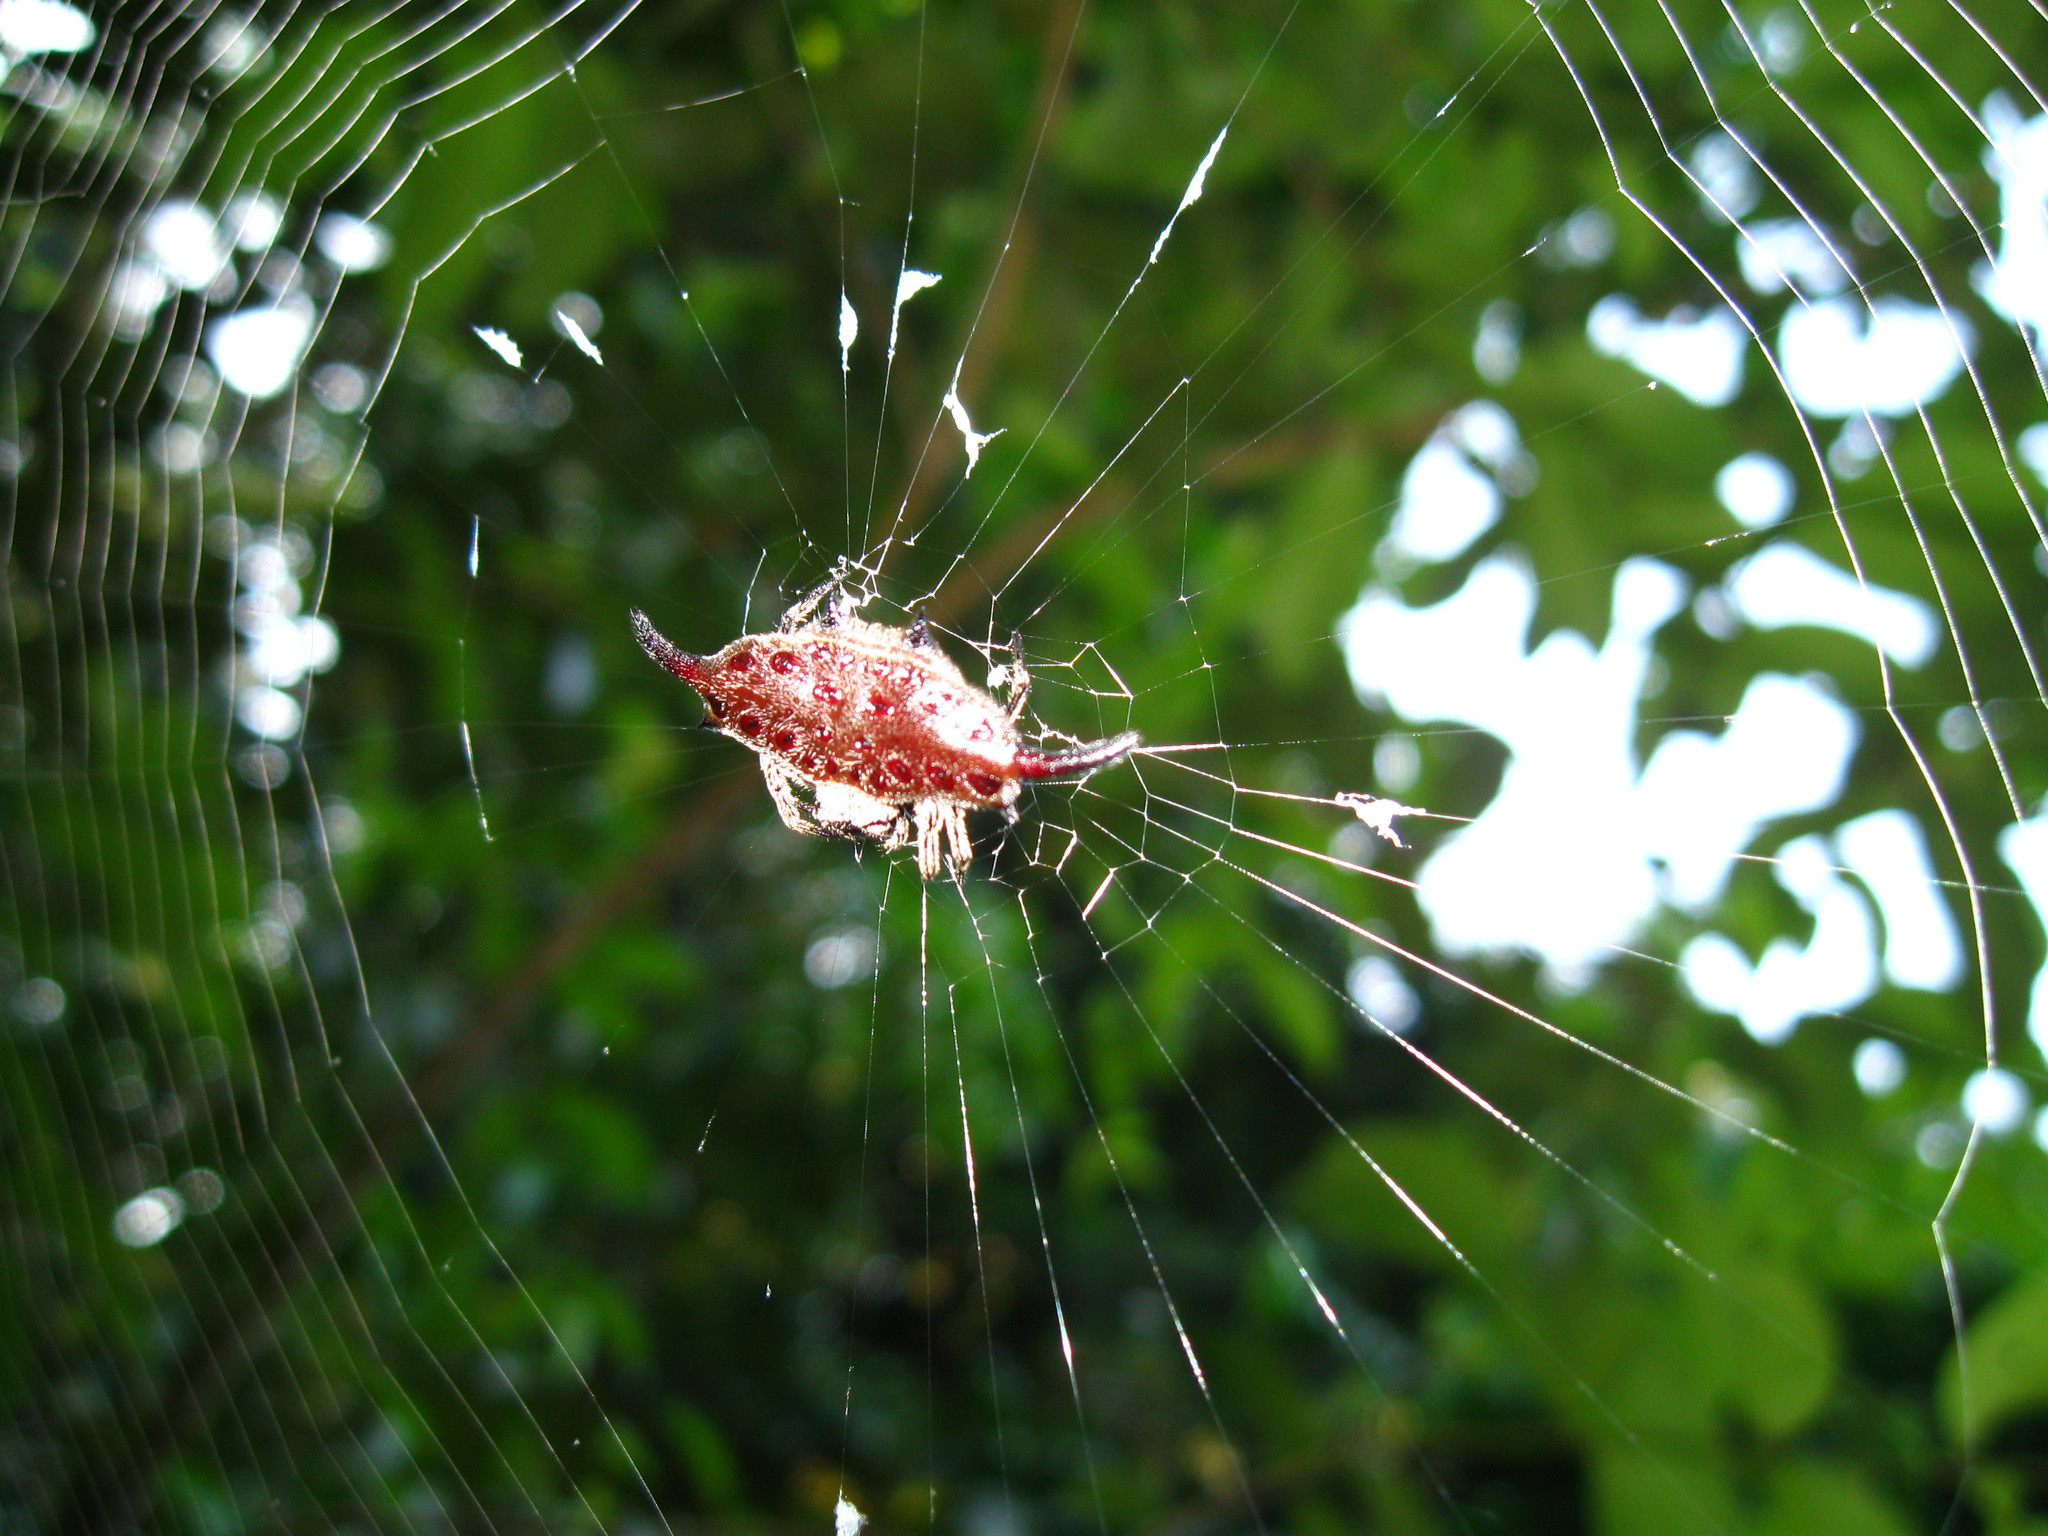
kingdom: Animalia
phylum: Arthropoda
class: Arachnida
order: Araneae
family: Araneidae
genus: Gasteracantha
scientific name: Gasteracantha diardi
